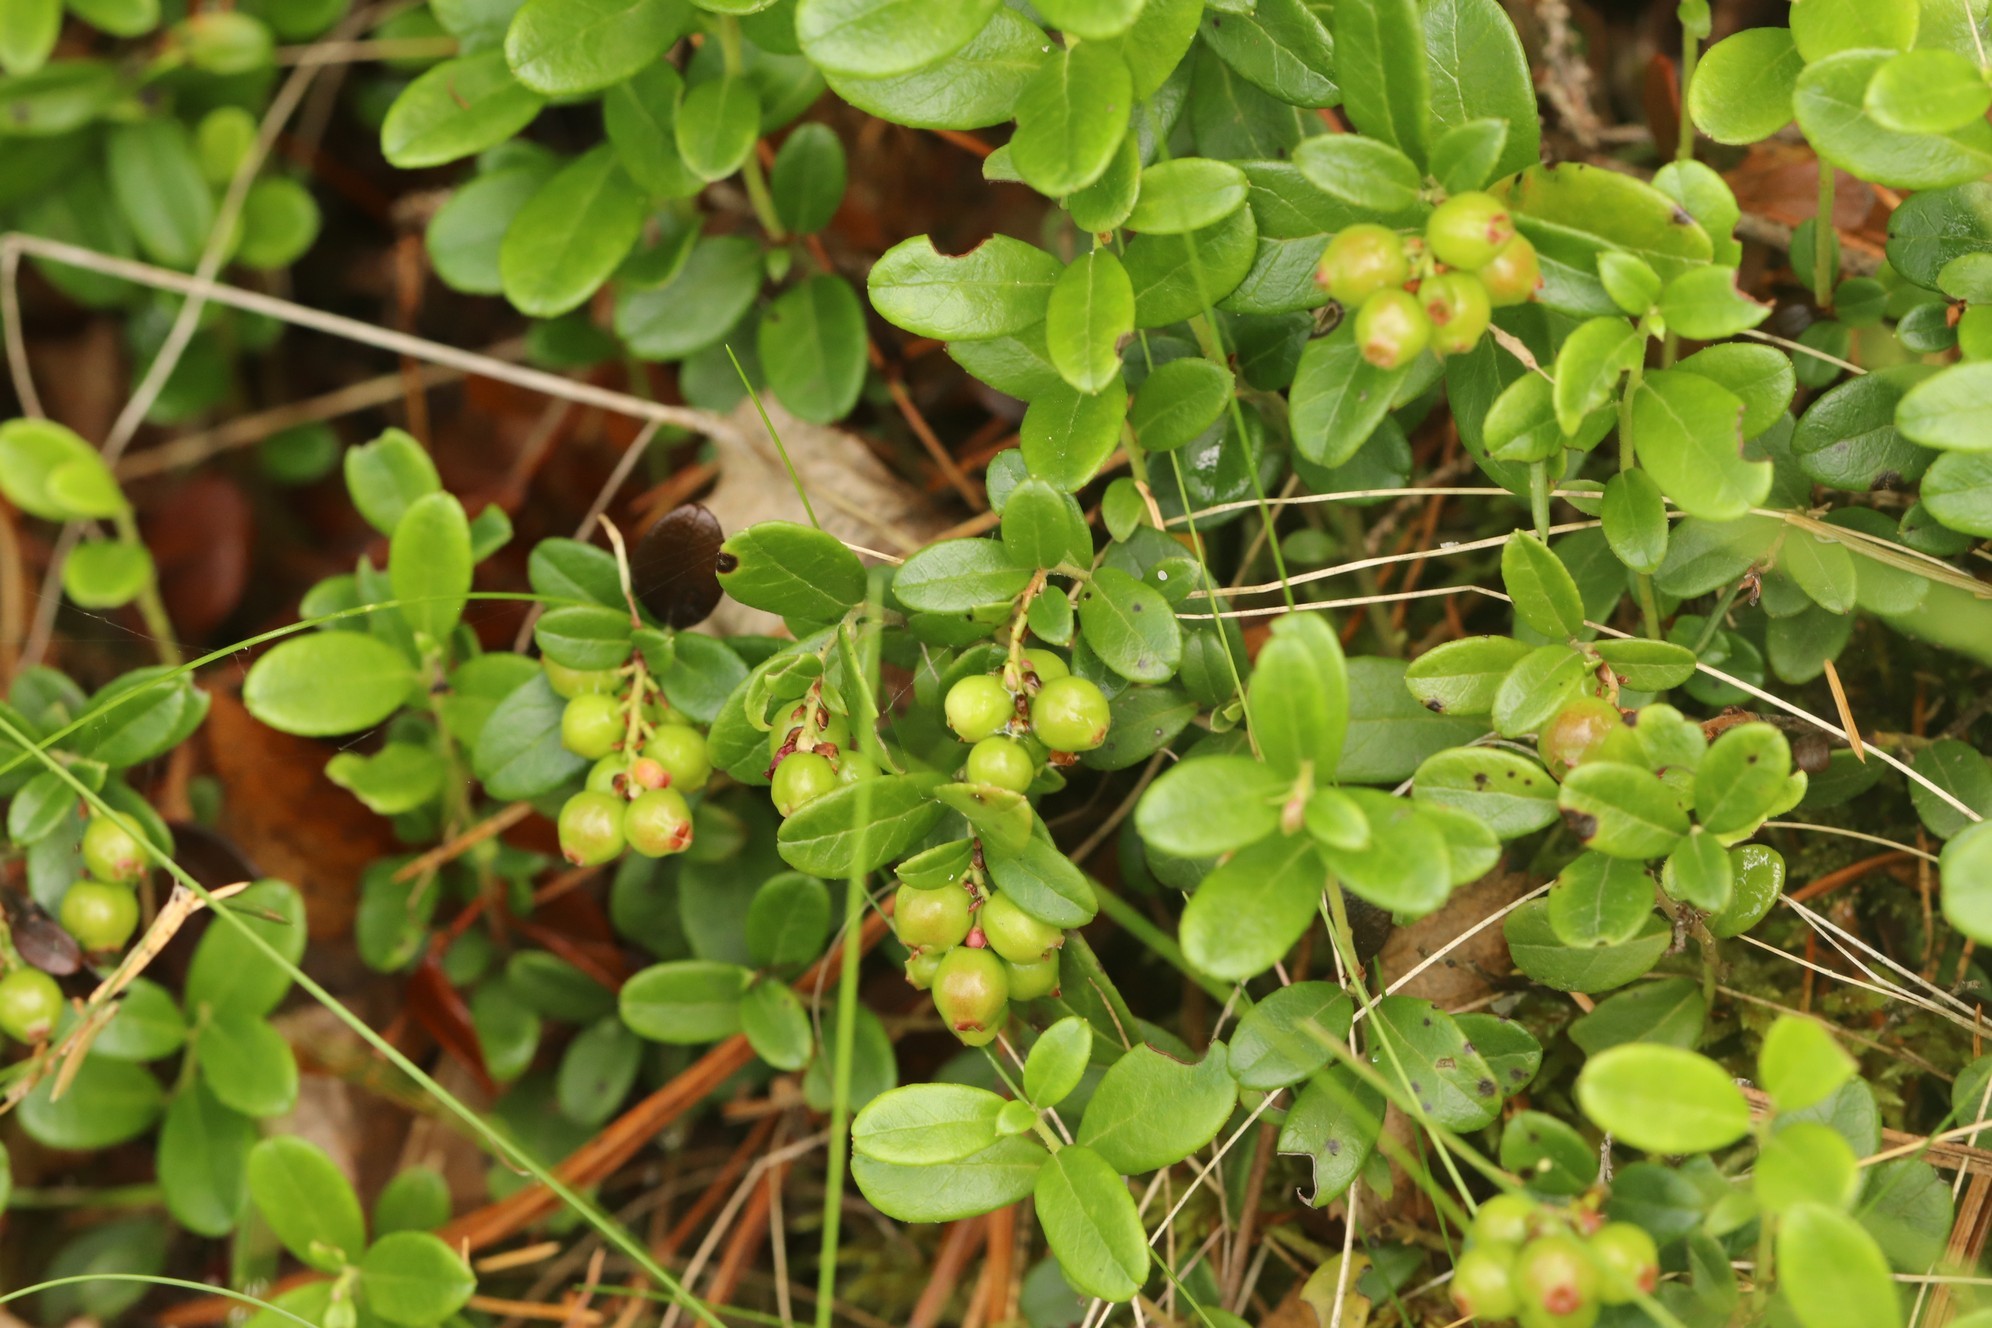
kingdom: Plantae
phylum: Tracheophyta
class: Magnoliopsida
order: Ericales
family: Ericaceae
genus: Vaccinium
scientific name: Vaccinium vitis-idaea
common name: Cowberry
